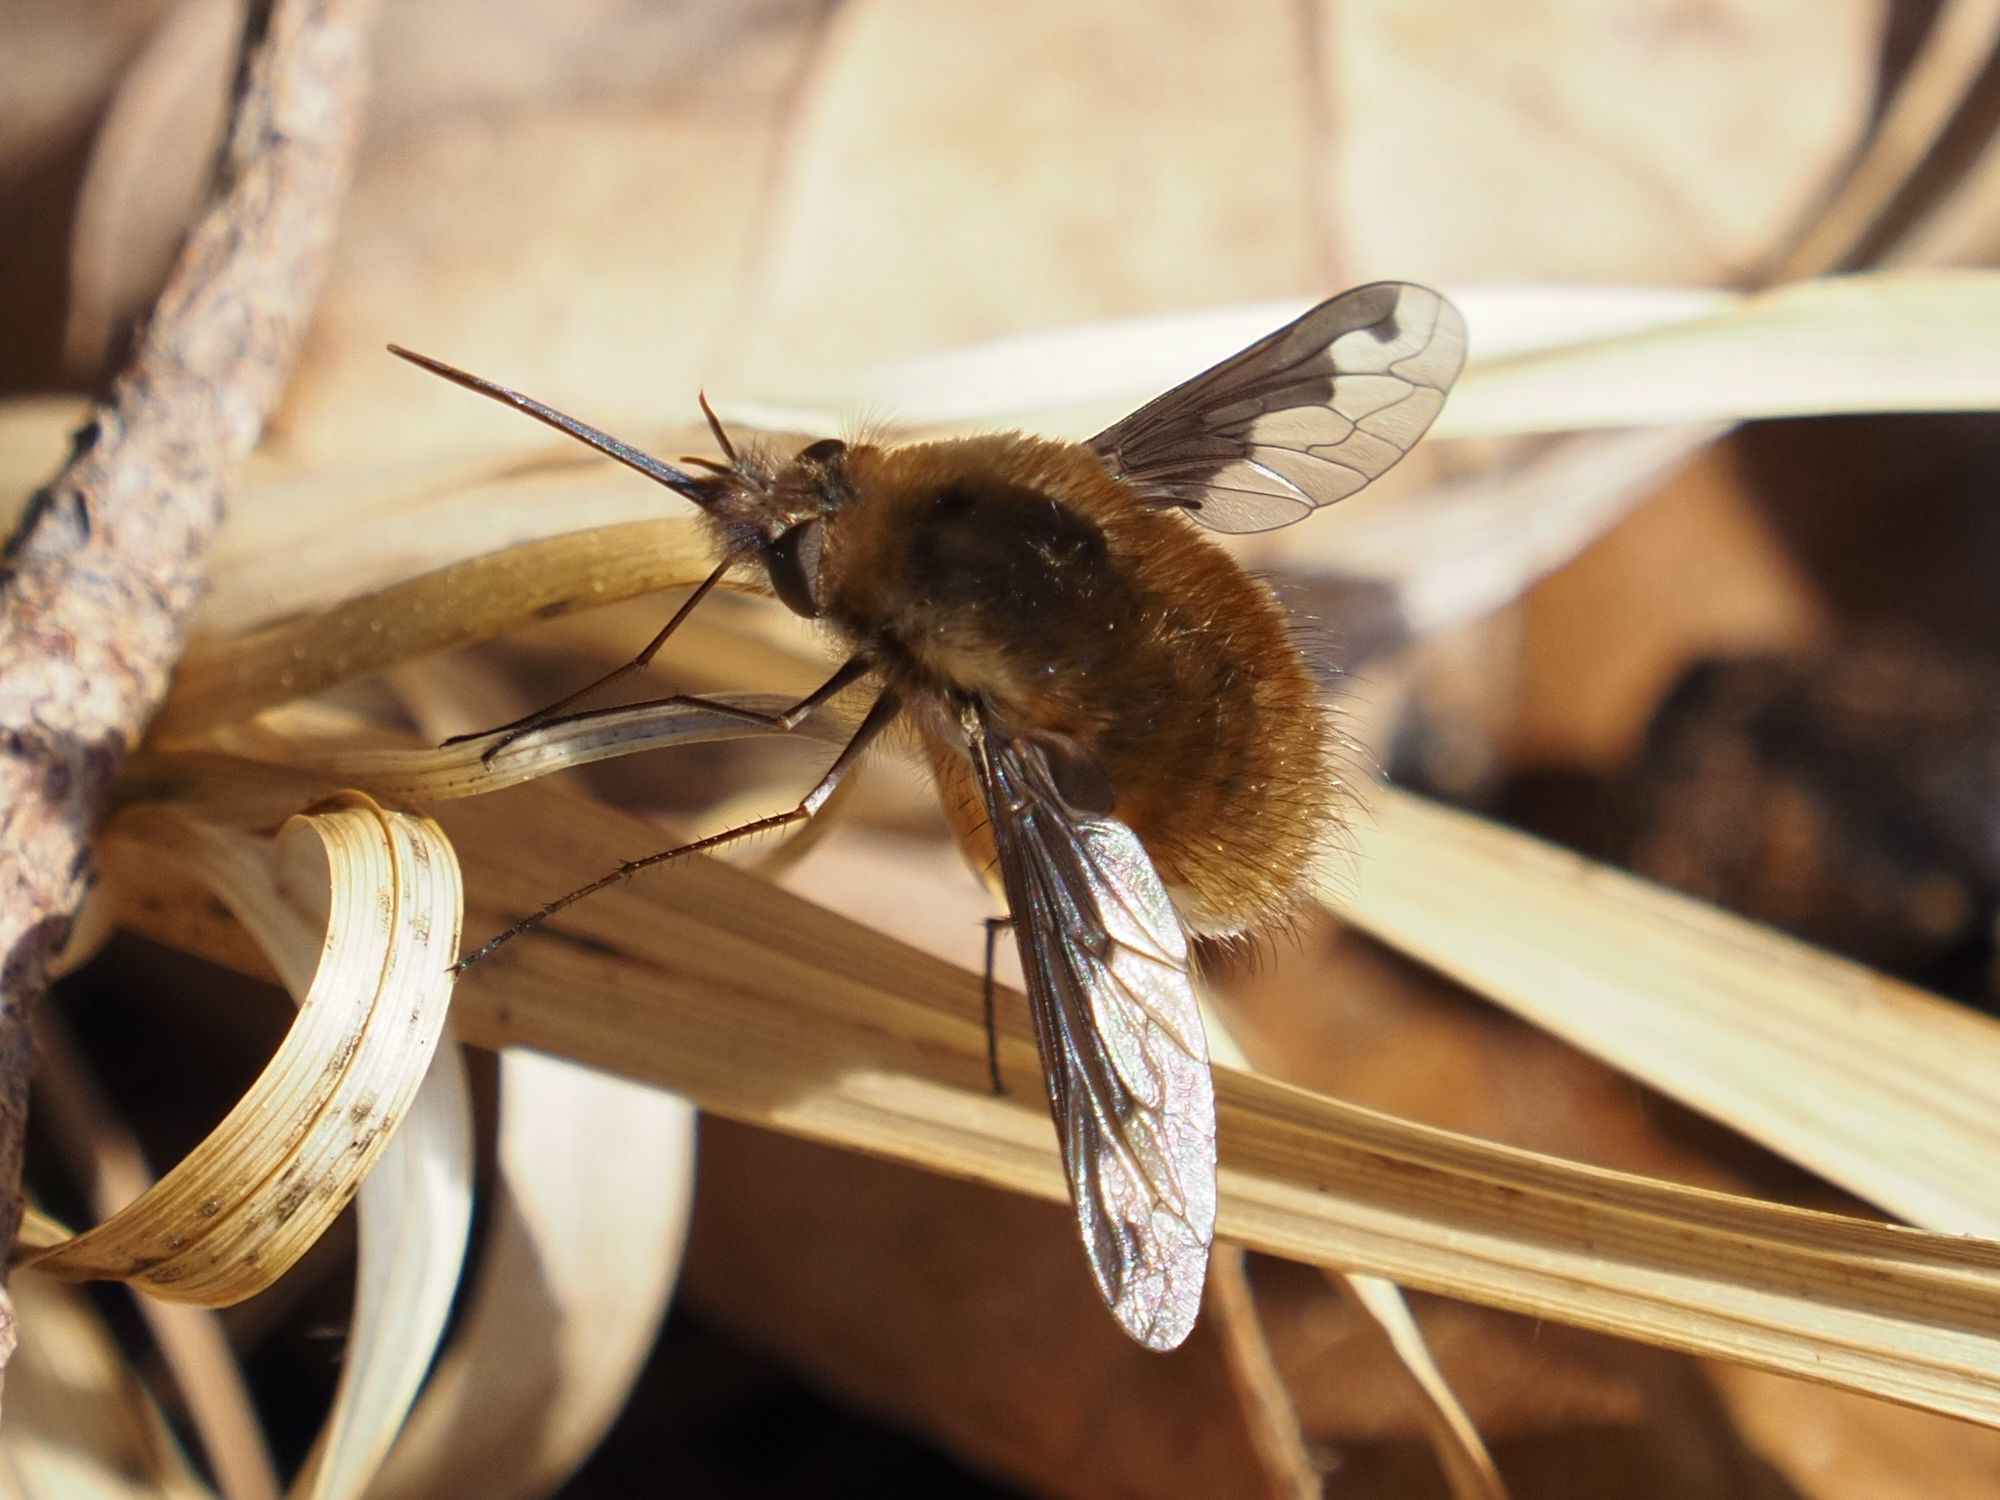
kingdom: Animalia
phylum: Arthropoda
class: Insecta
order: Diptera
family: Bombyliidae
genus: Bombylius
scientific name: Bombylius major
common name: Bee fly
